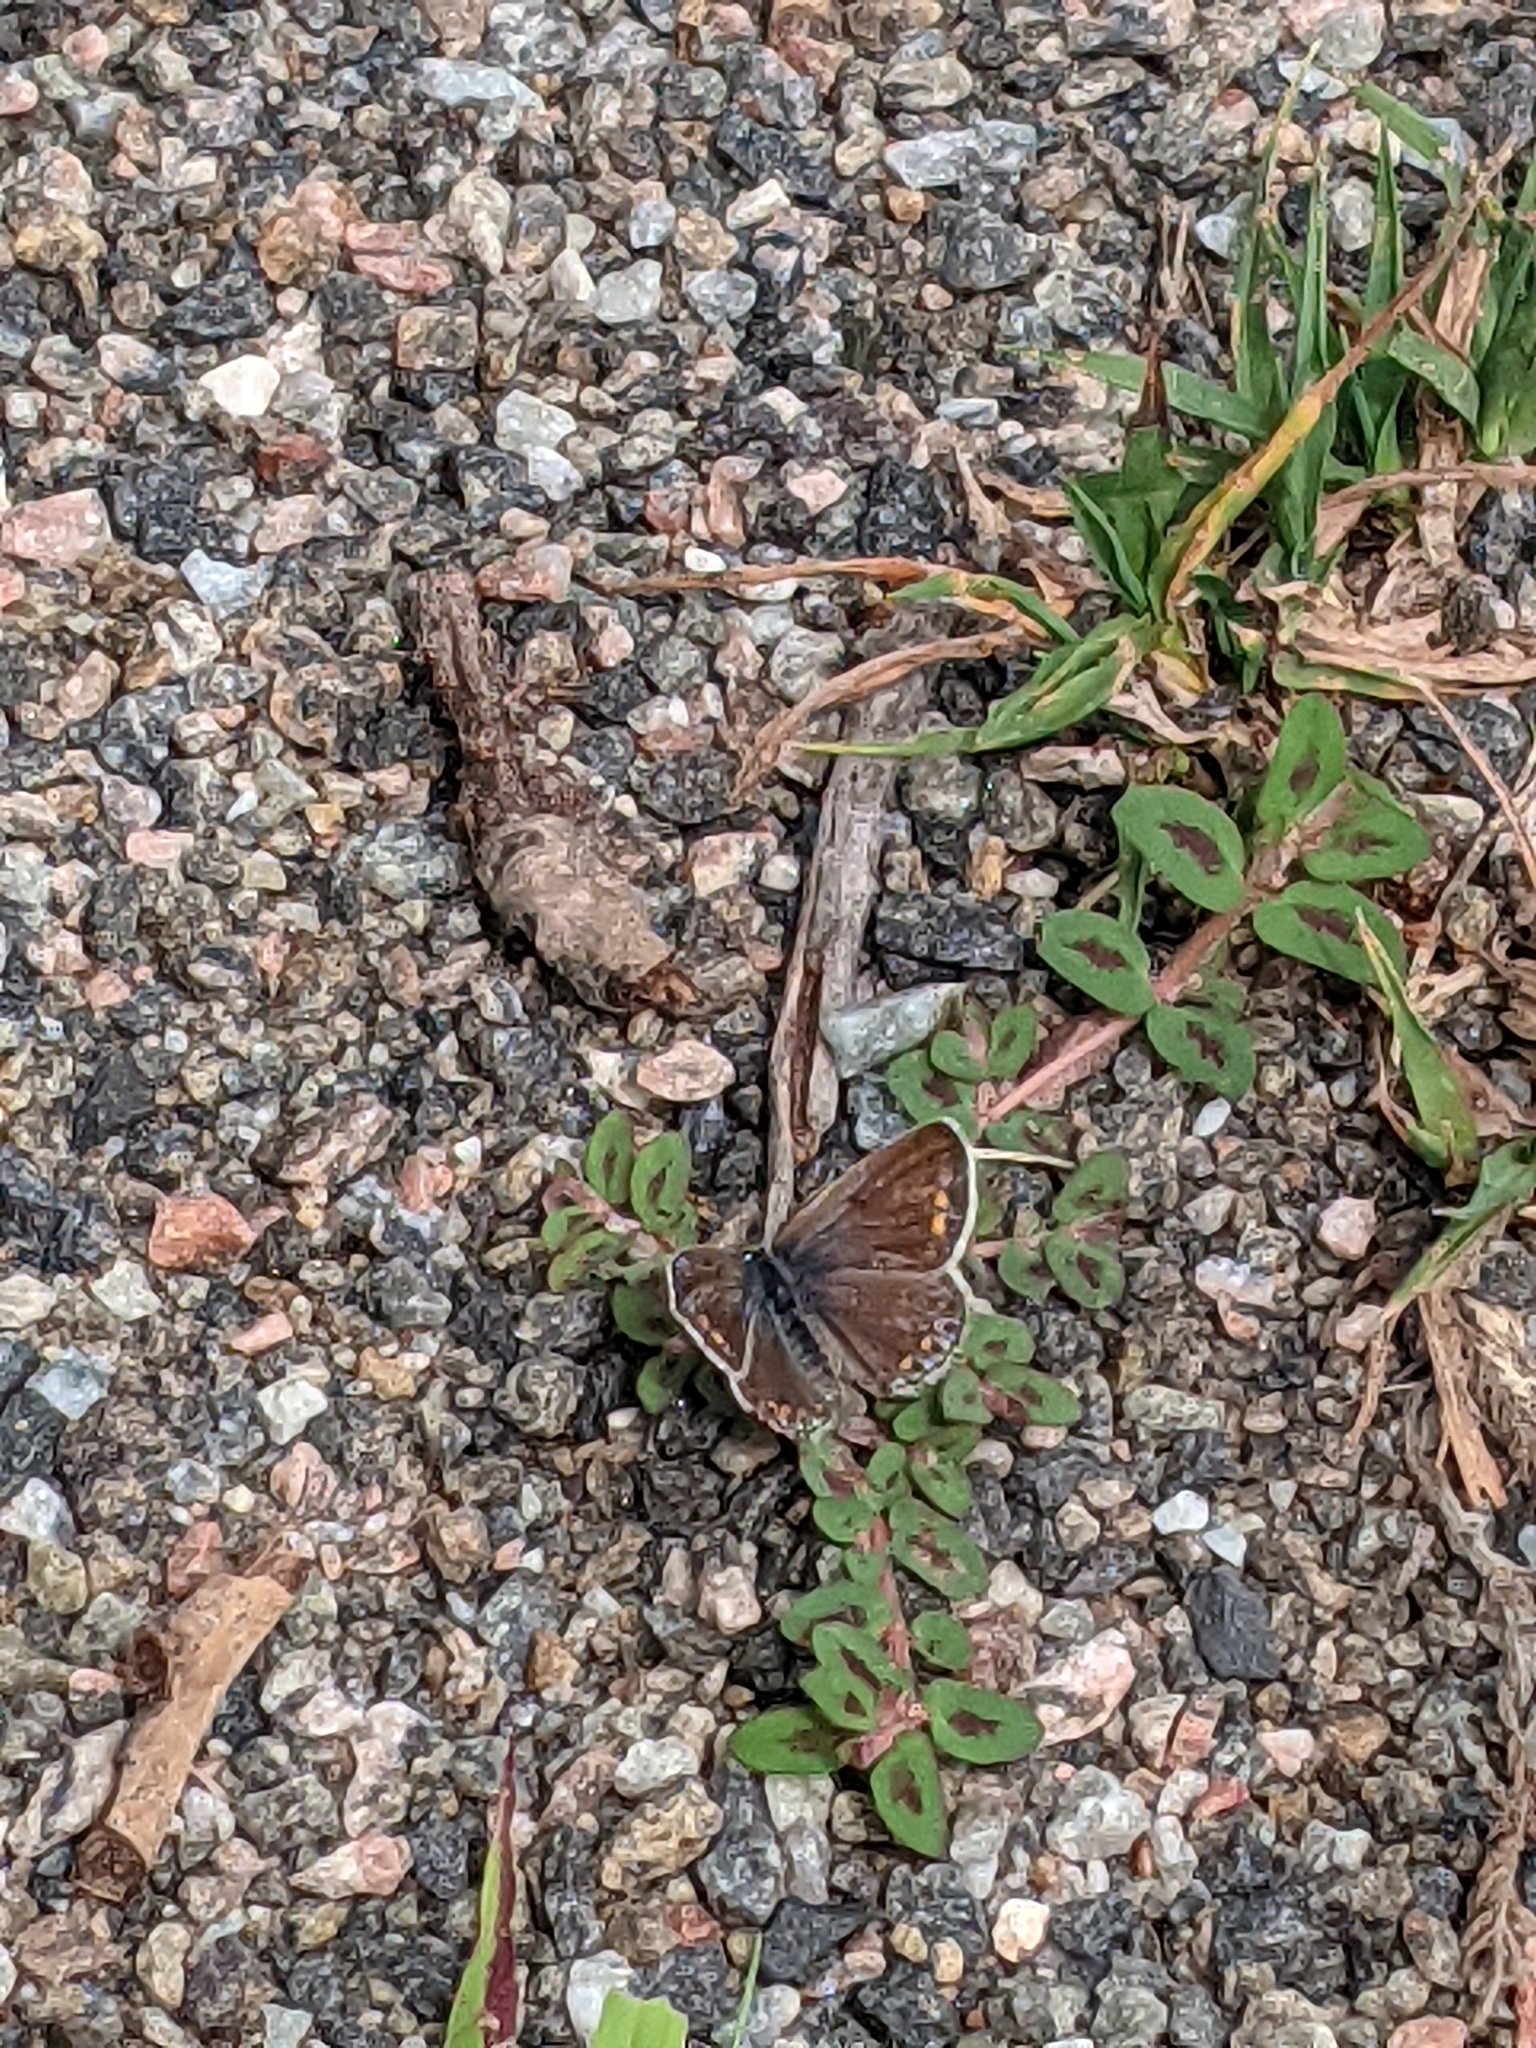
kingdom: Animalia
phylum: Arthropoda
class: Insecta
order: Lepidoptera
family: Lycaenidae
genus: Polyommatus
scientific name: Polyommatus icarus
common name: Common blue
